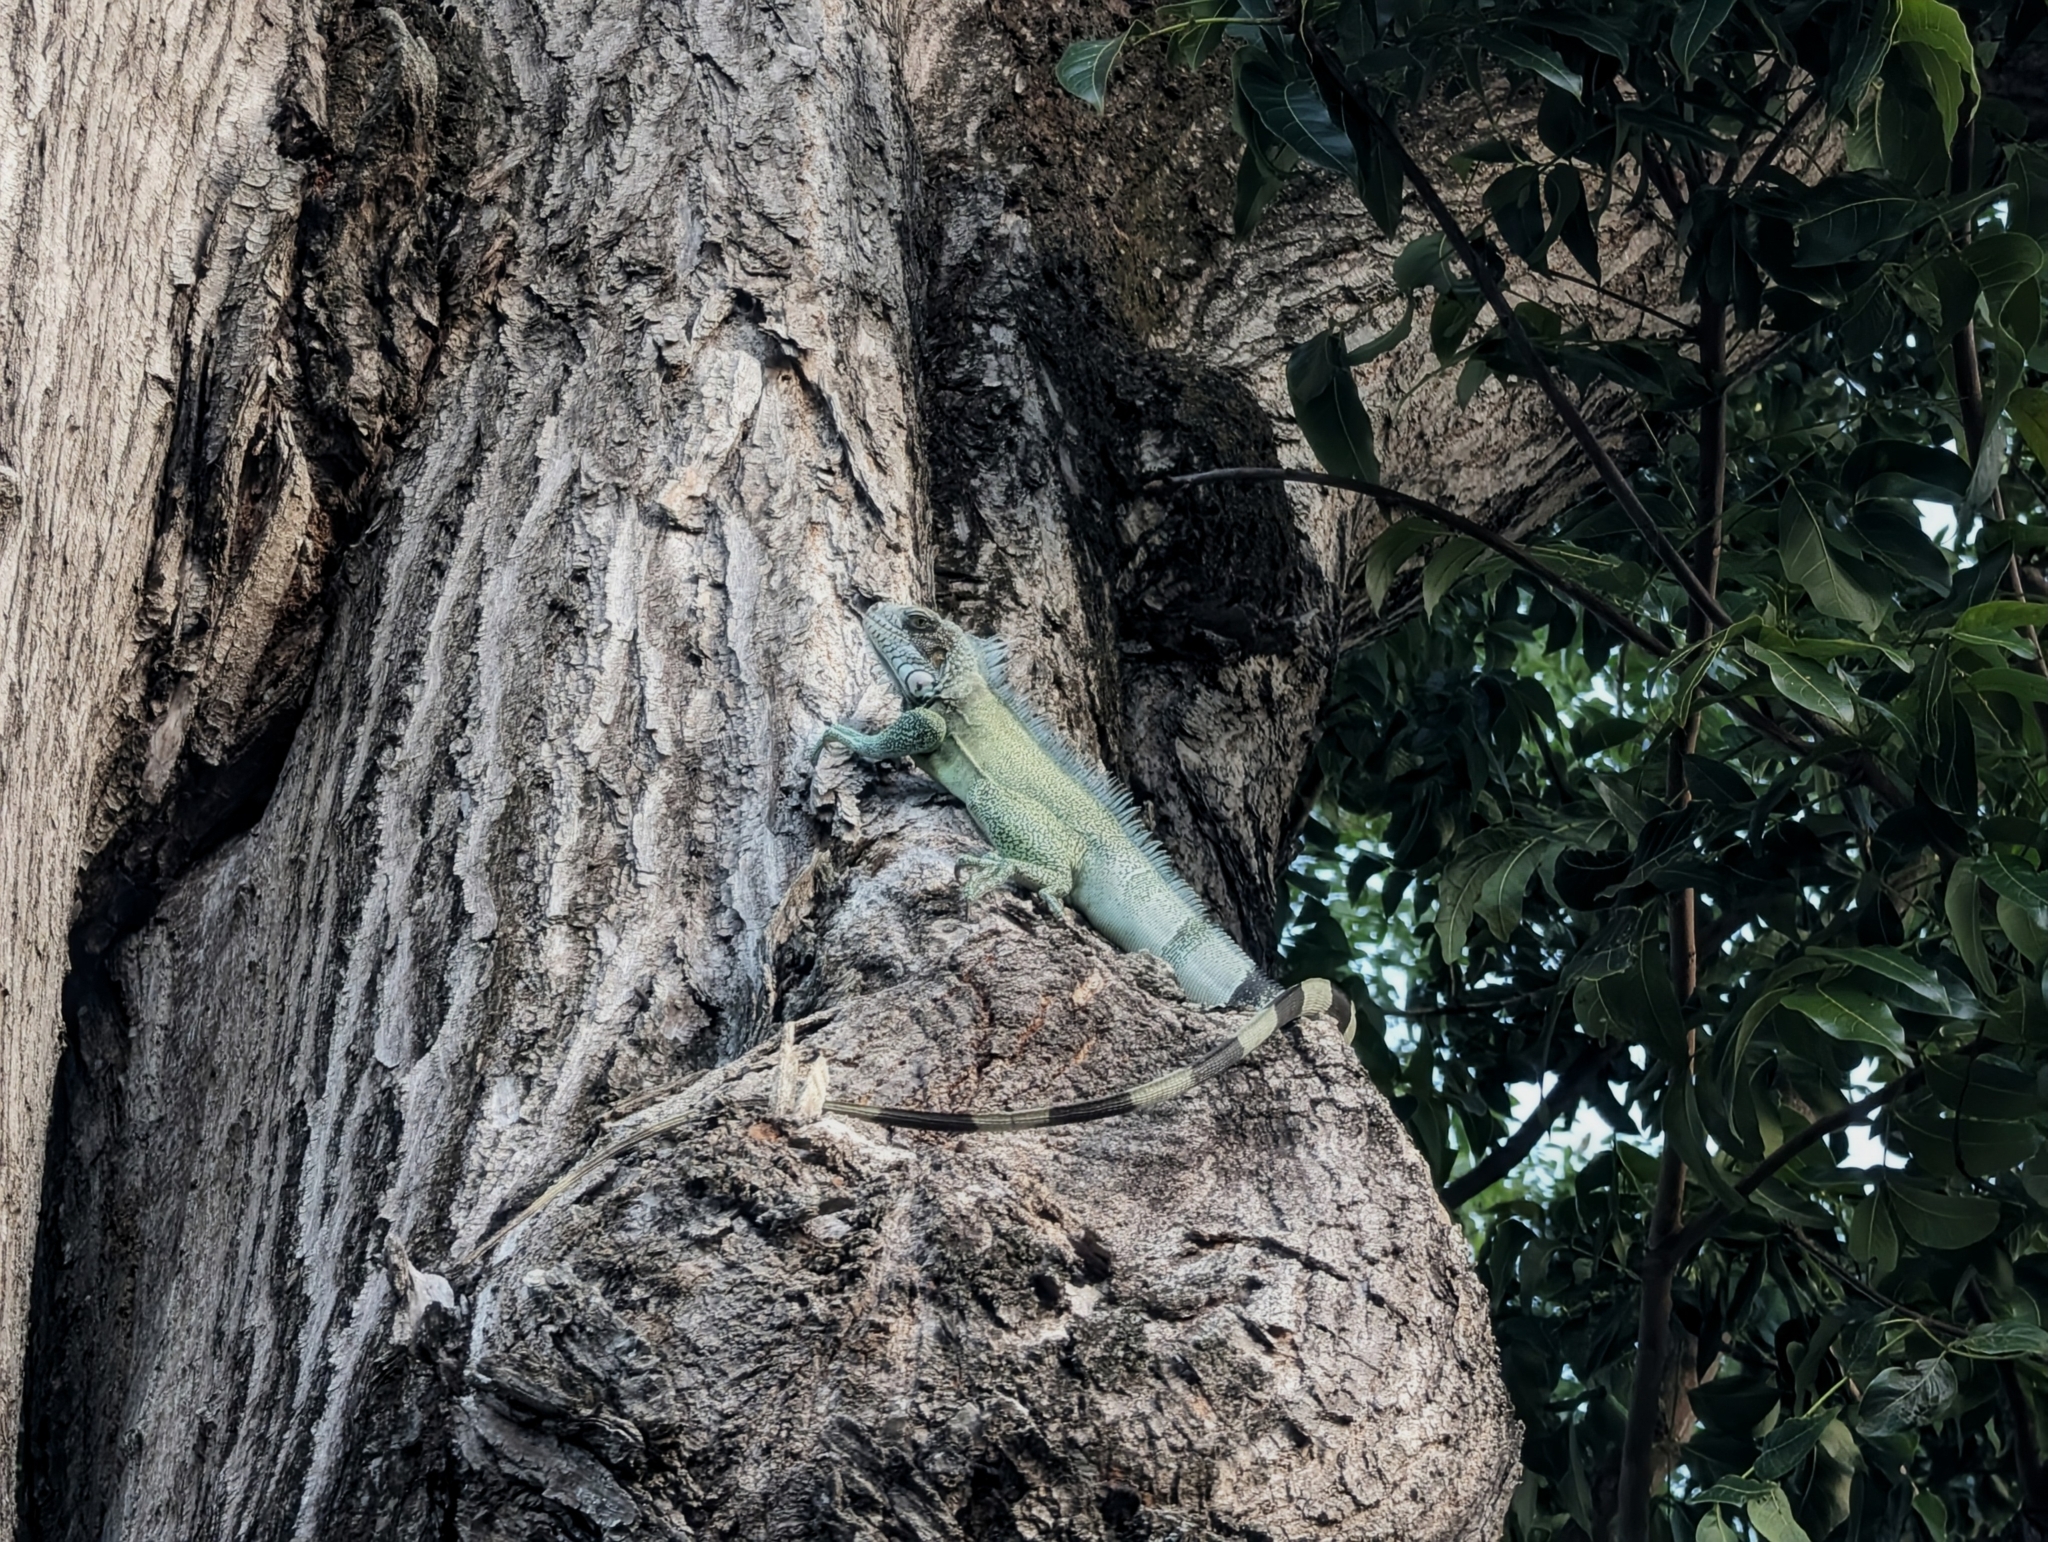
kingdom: Animalia
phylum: Chordata
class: Squamata
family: Iguanidae
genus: Iguana
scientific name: Iguana iguana
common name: Green iguana
